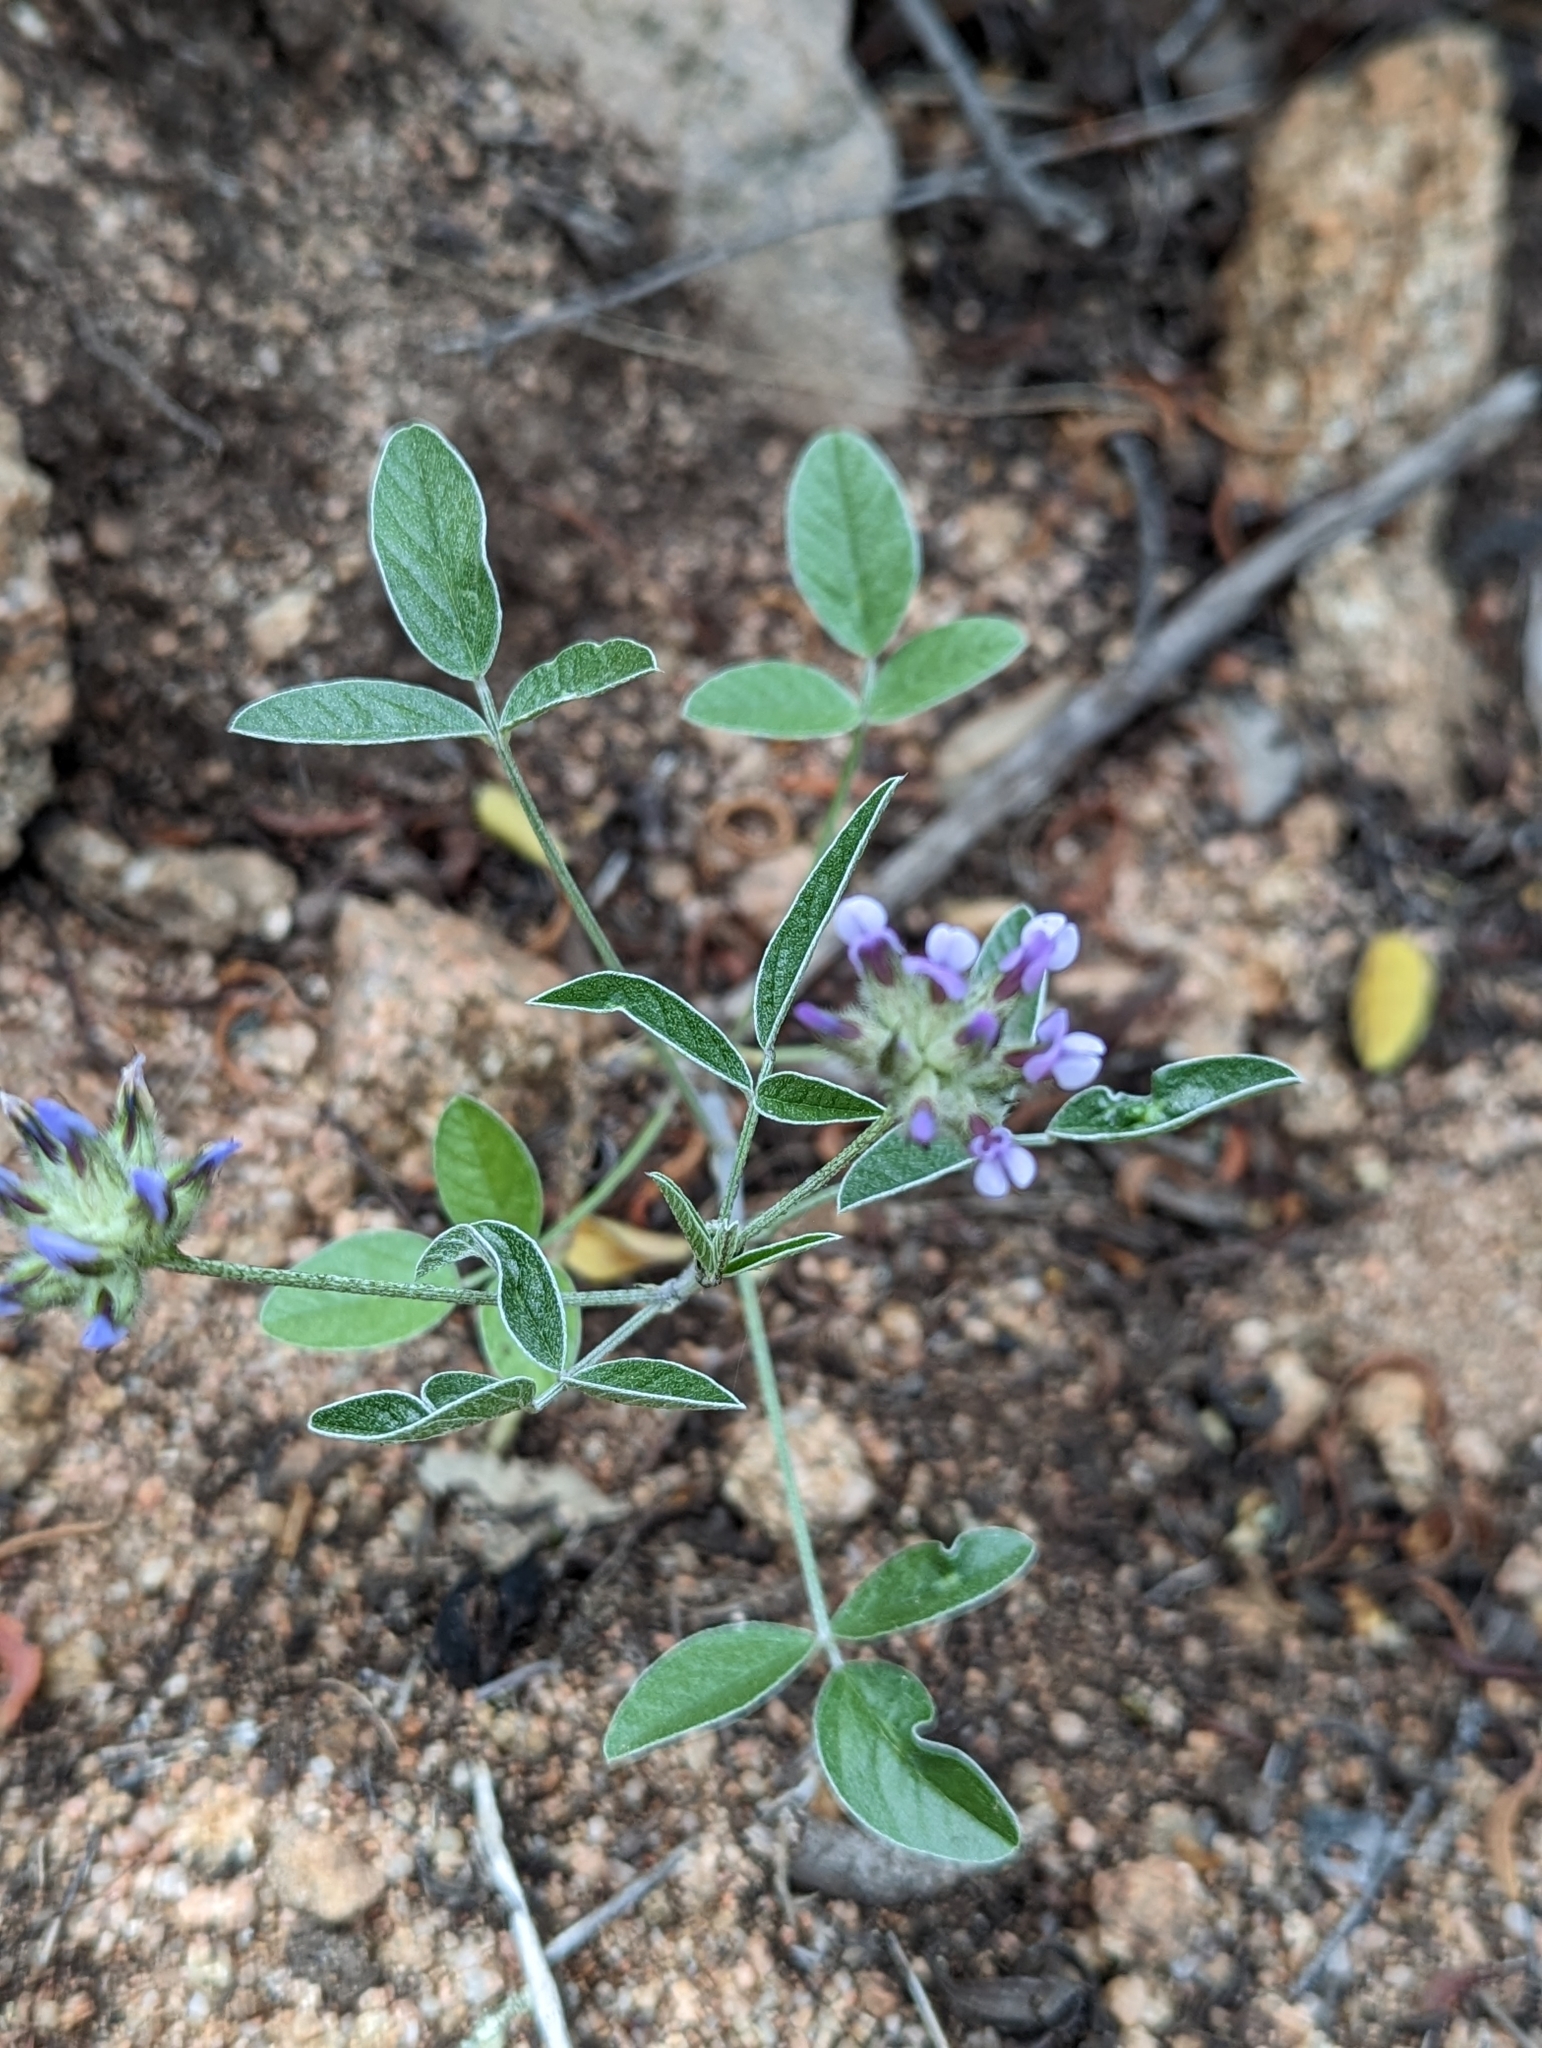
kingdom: Plantae
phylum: Tracheophyta
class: Magnoliopsida
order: Fabales
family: Fabaceae
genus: Bituminaria
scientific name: Bituminaria bituminosa
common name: Arabian pea
